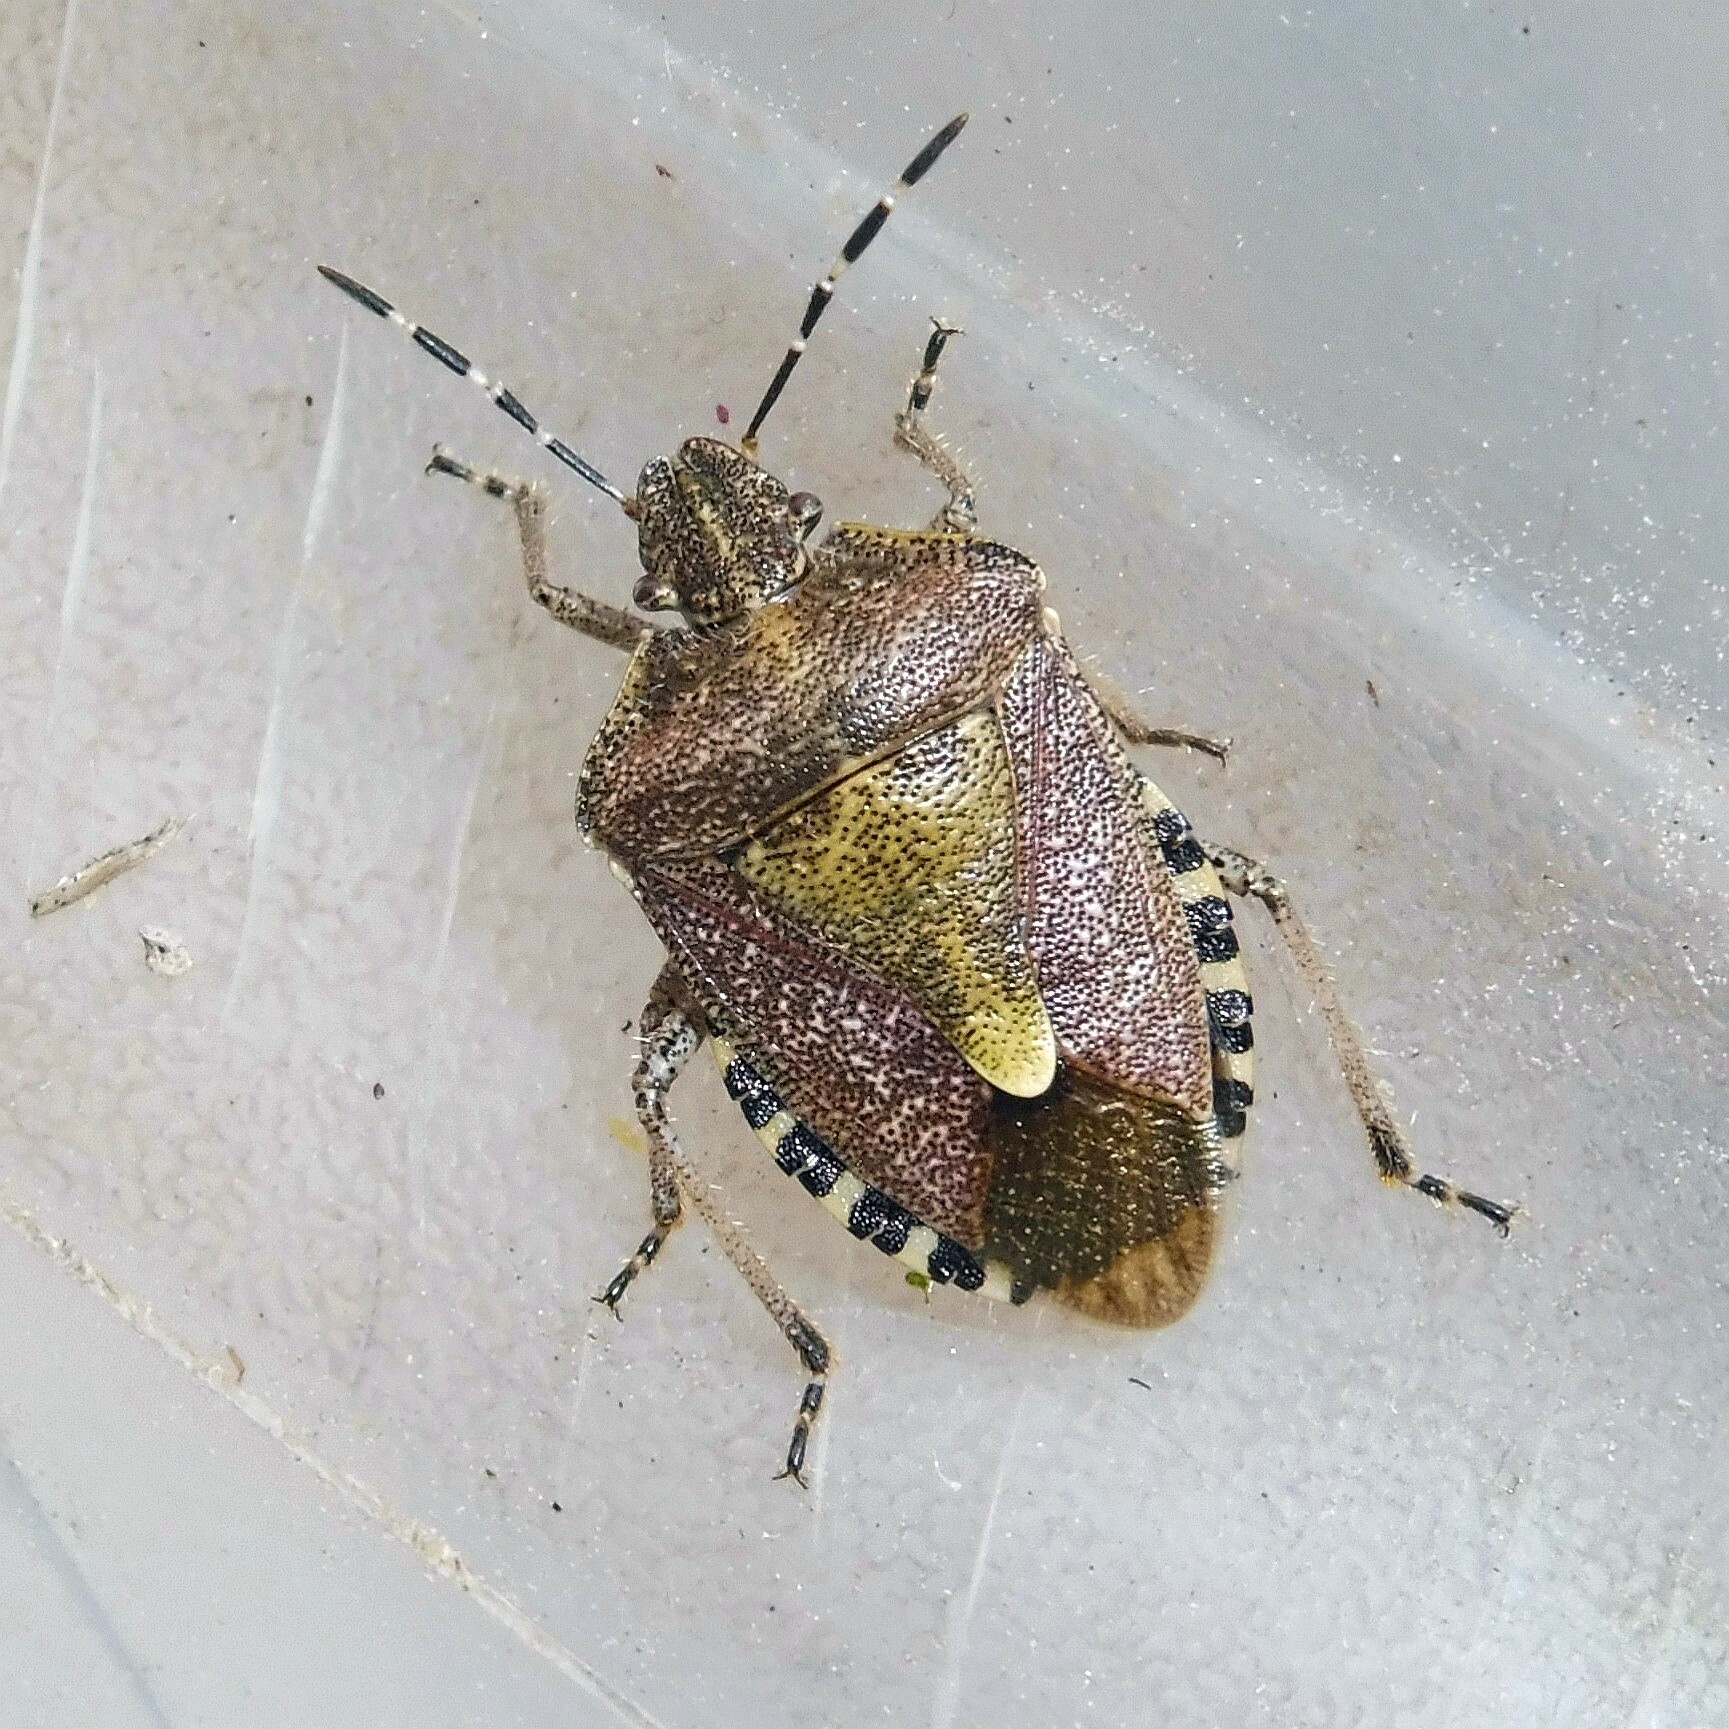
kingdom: Animalia
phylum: Arthropoda
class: Insecta
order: Hemiptera
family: Pentatomidae
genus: Dolycoris
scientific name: Dolycoris baccarum
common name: Sloe bug
